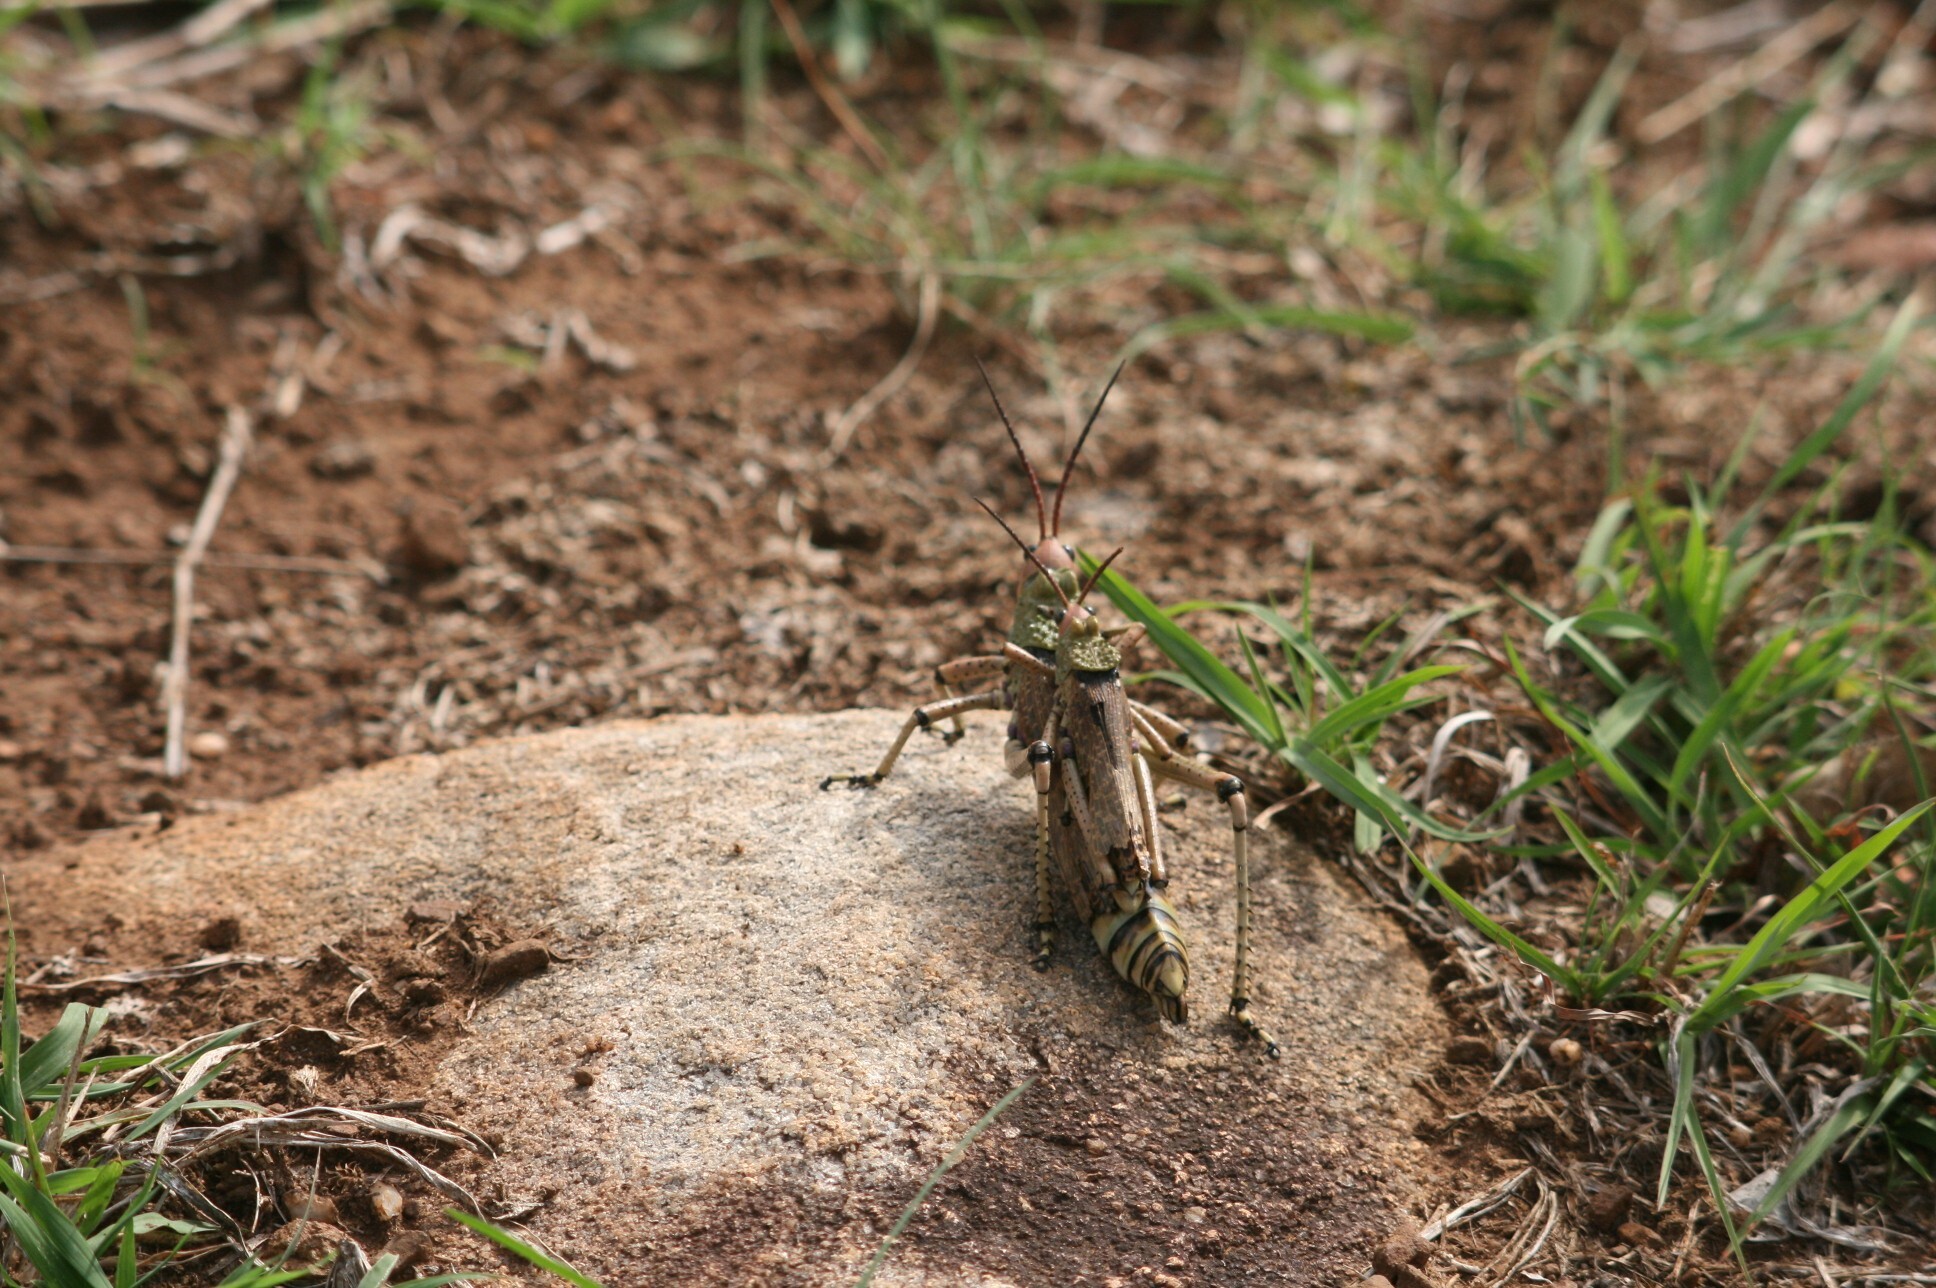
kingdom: Animalia
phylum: Arthropoda
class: Insecta
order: Orthoptera
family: Pyrgomorphidae
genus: Phymateus
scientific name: Phymateus leprosus
